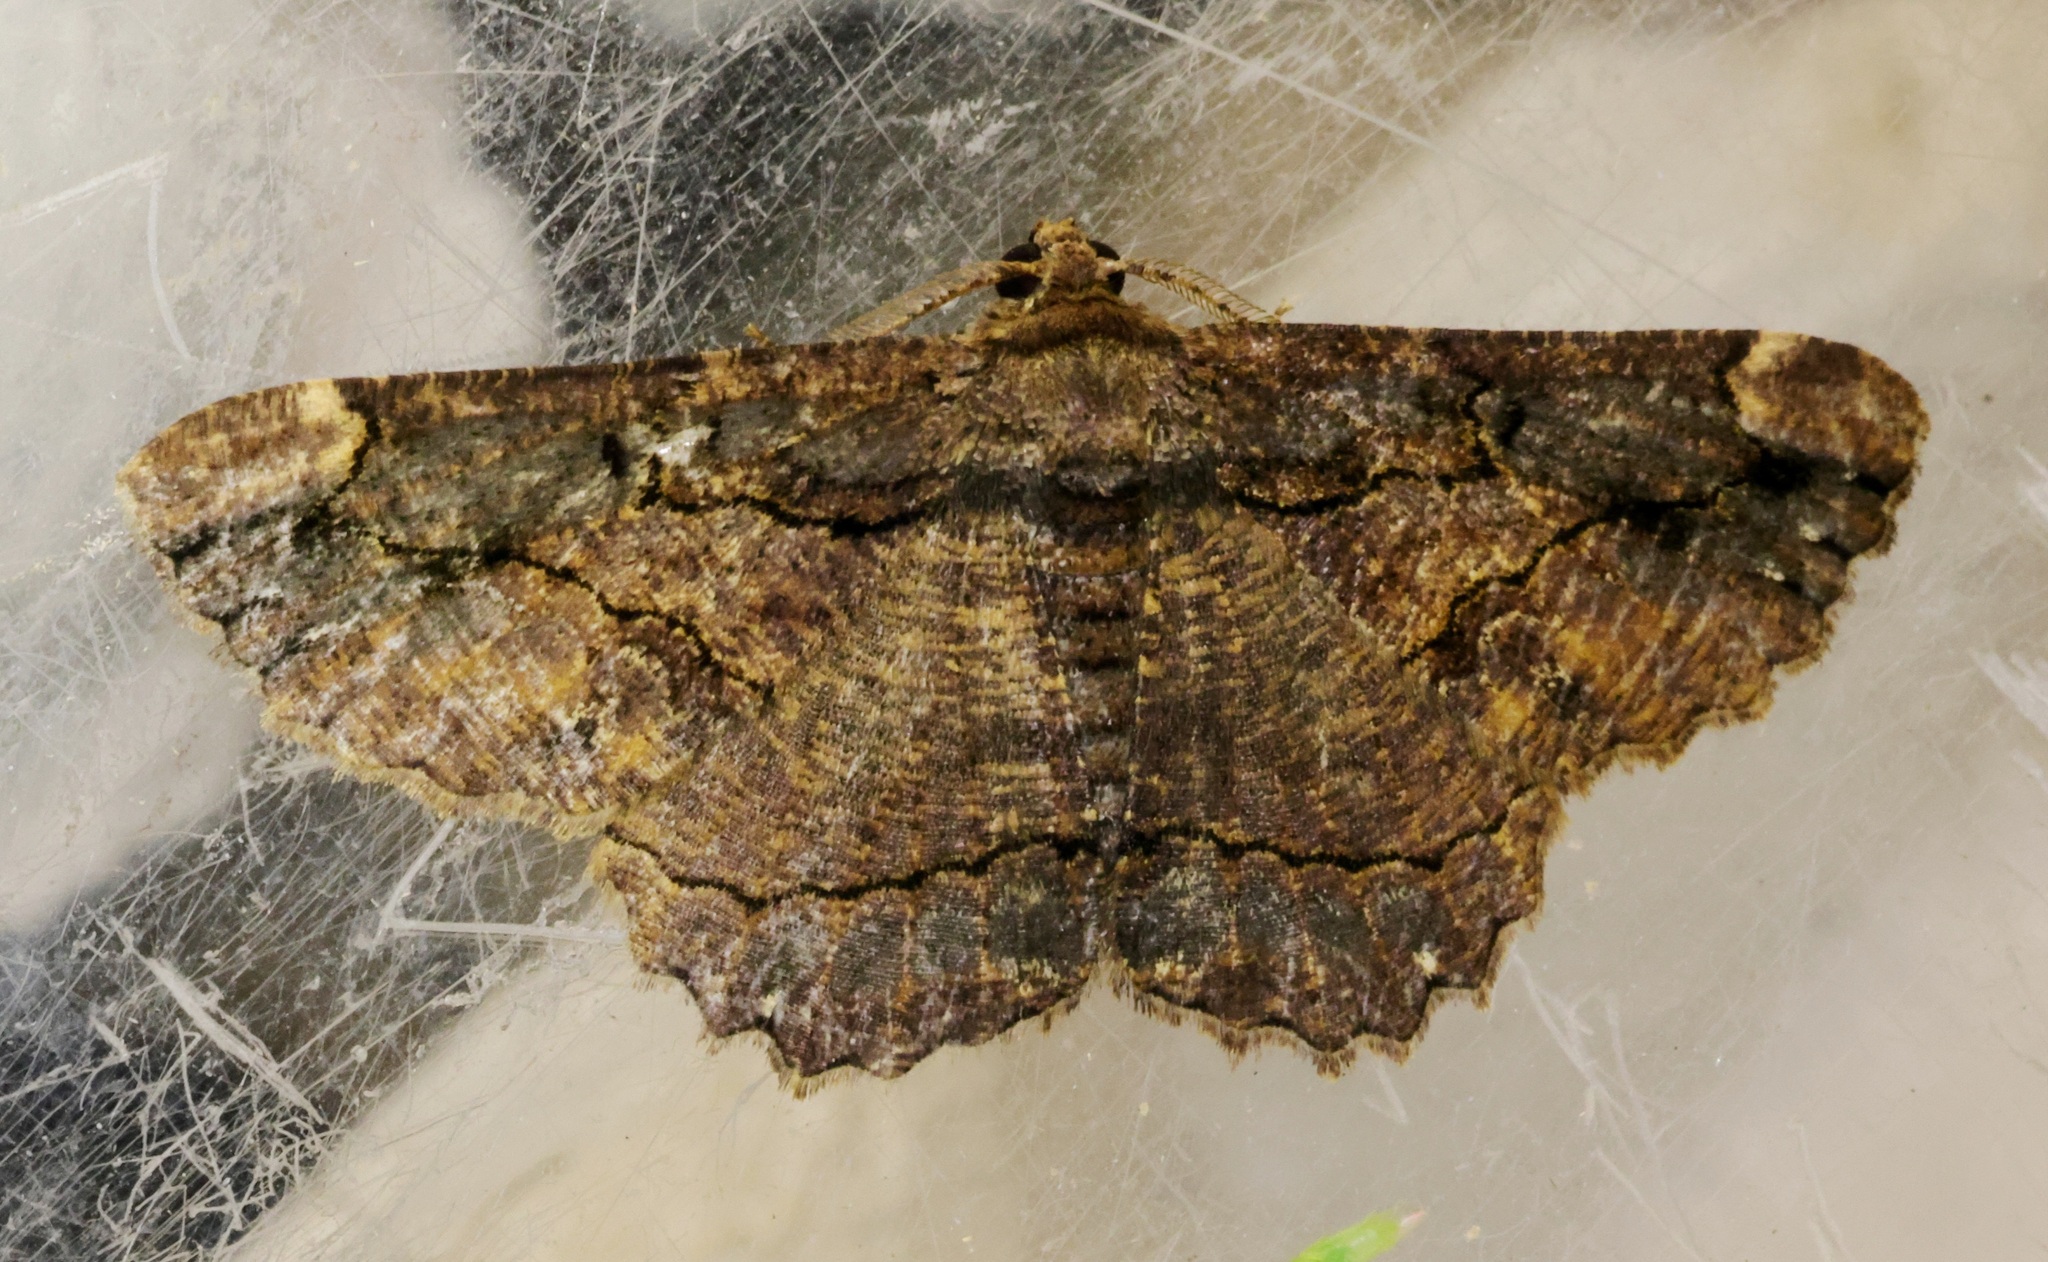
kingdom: Animalia
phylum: Arthropoda
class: Insecta
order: Lepidoptera
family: Geometridae
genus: Dasyboarmia
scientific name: Dasyboarmia subpilosa
